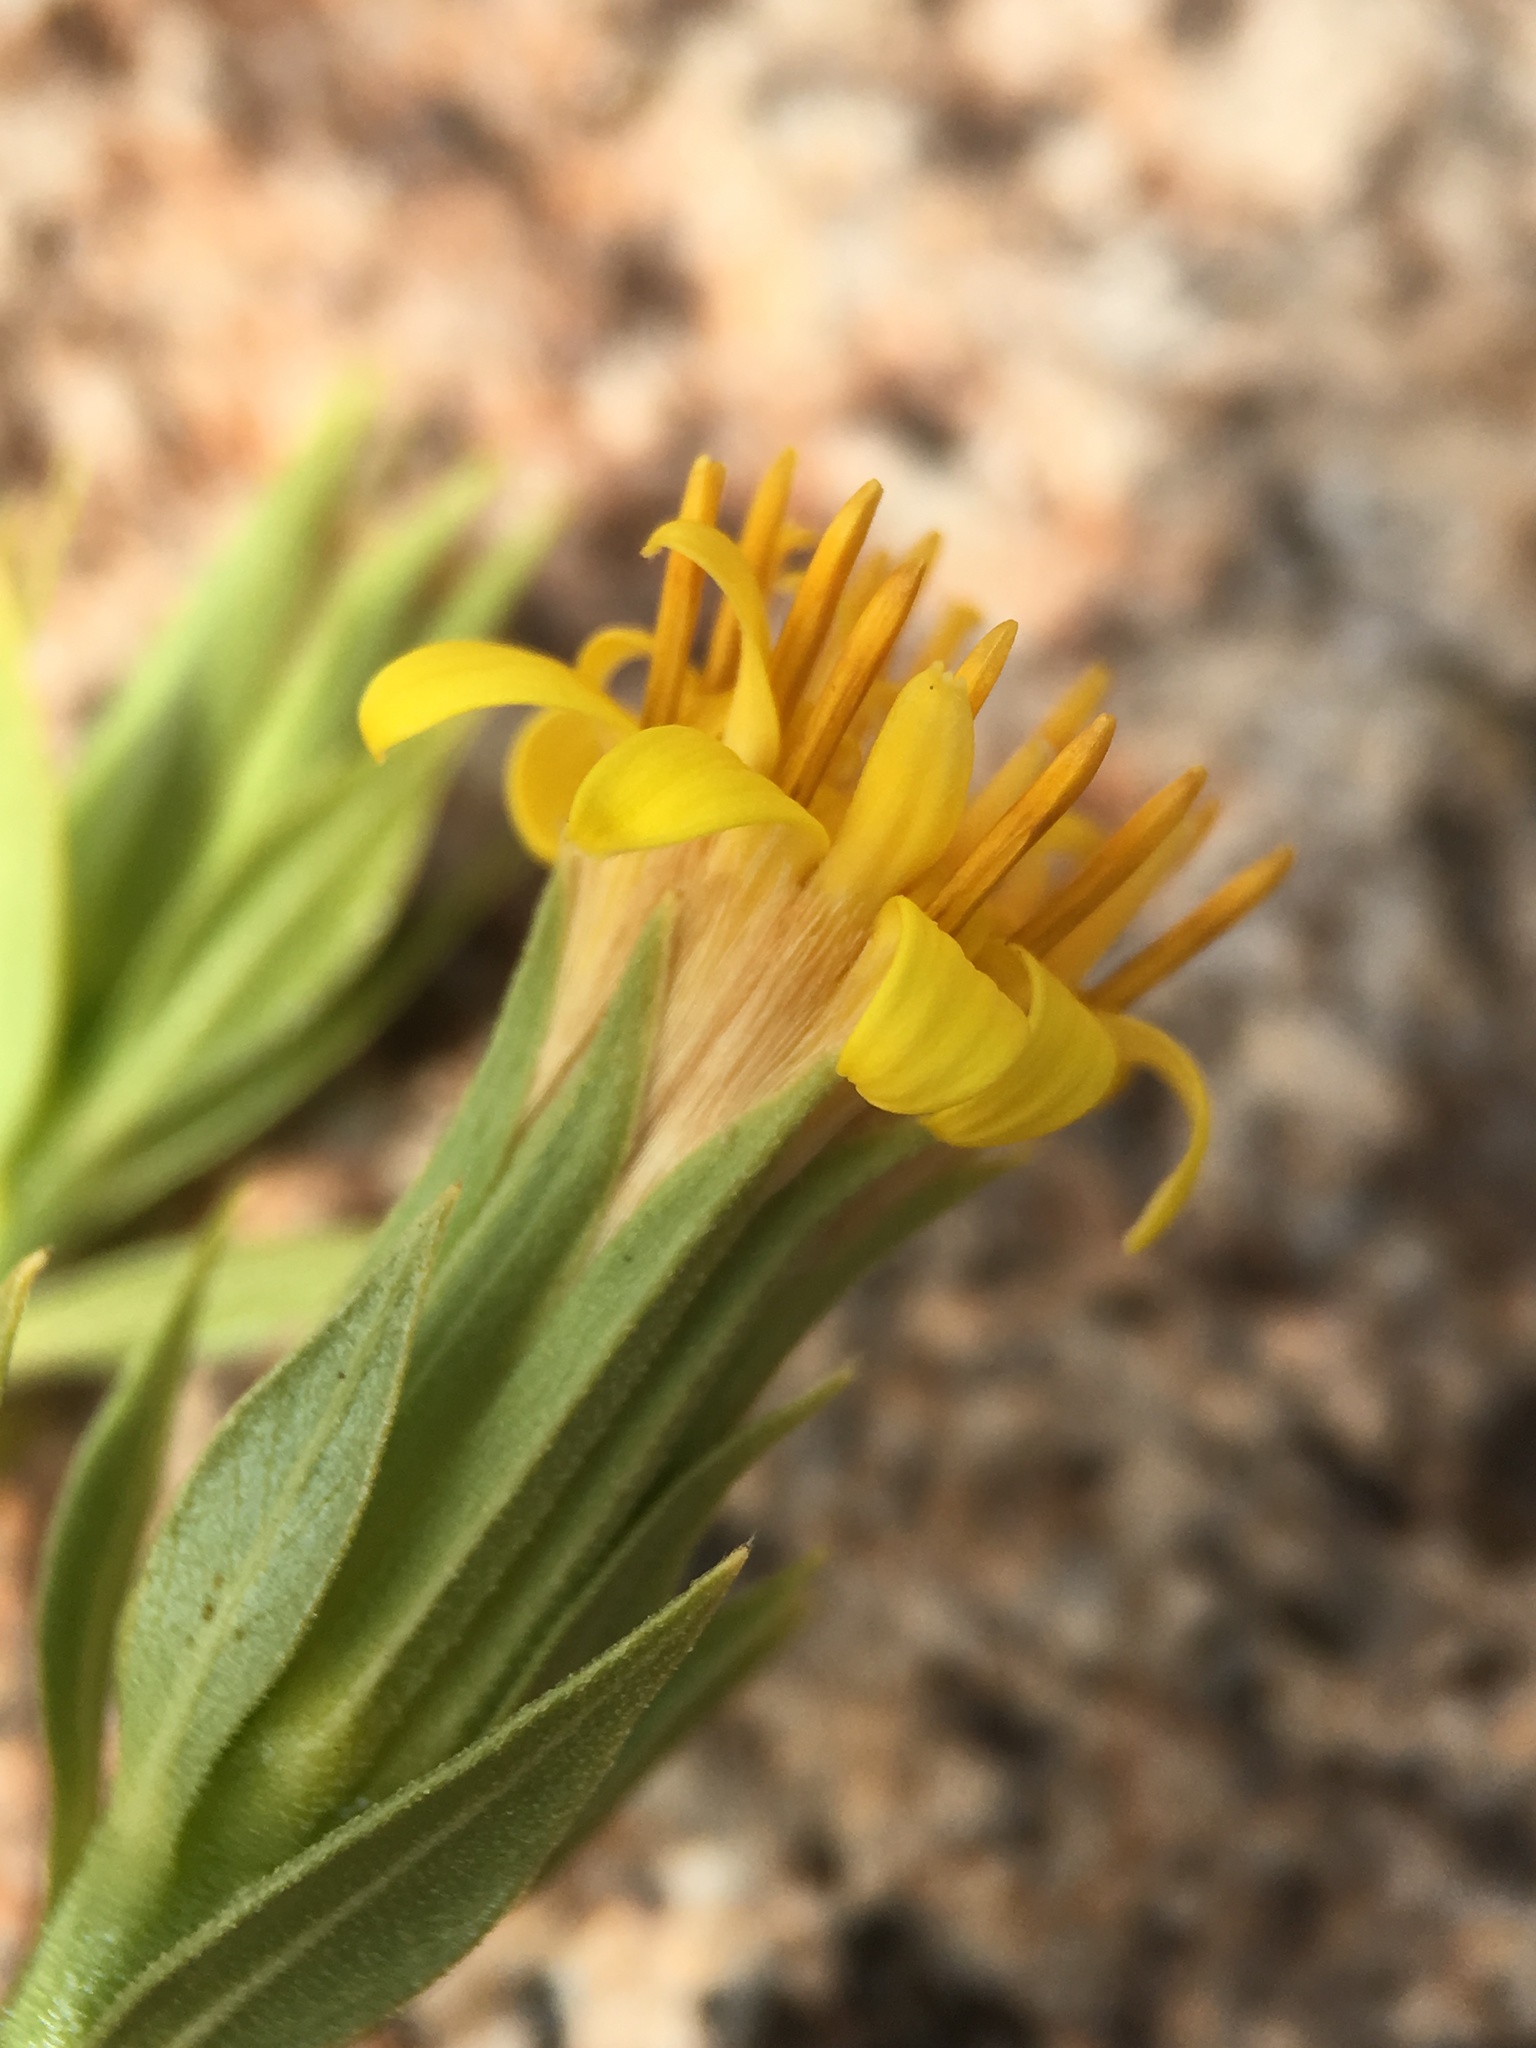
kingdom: Plantae
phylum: Tracheophyta
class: Magnoliopsida
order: Asterales
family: Asteraceae
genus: Trixis
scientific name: Trixis californica
